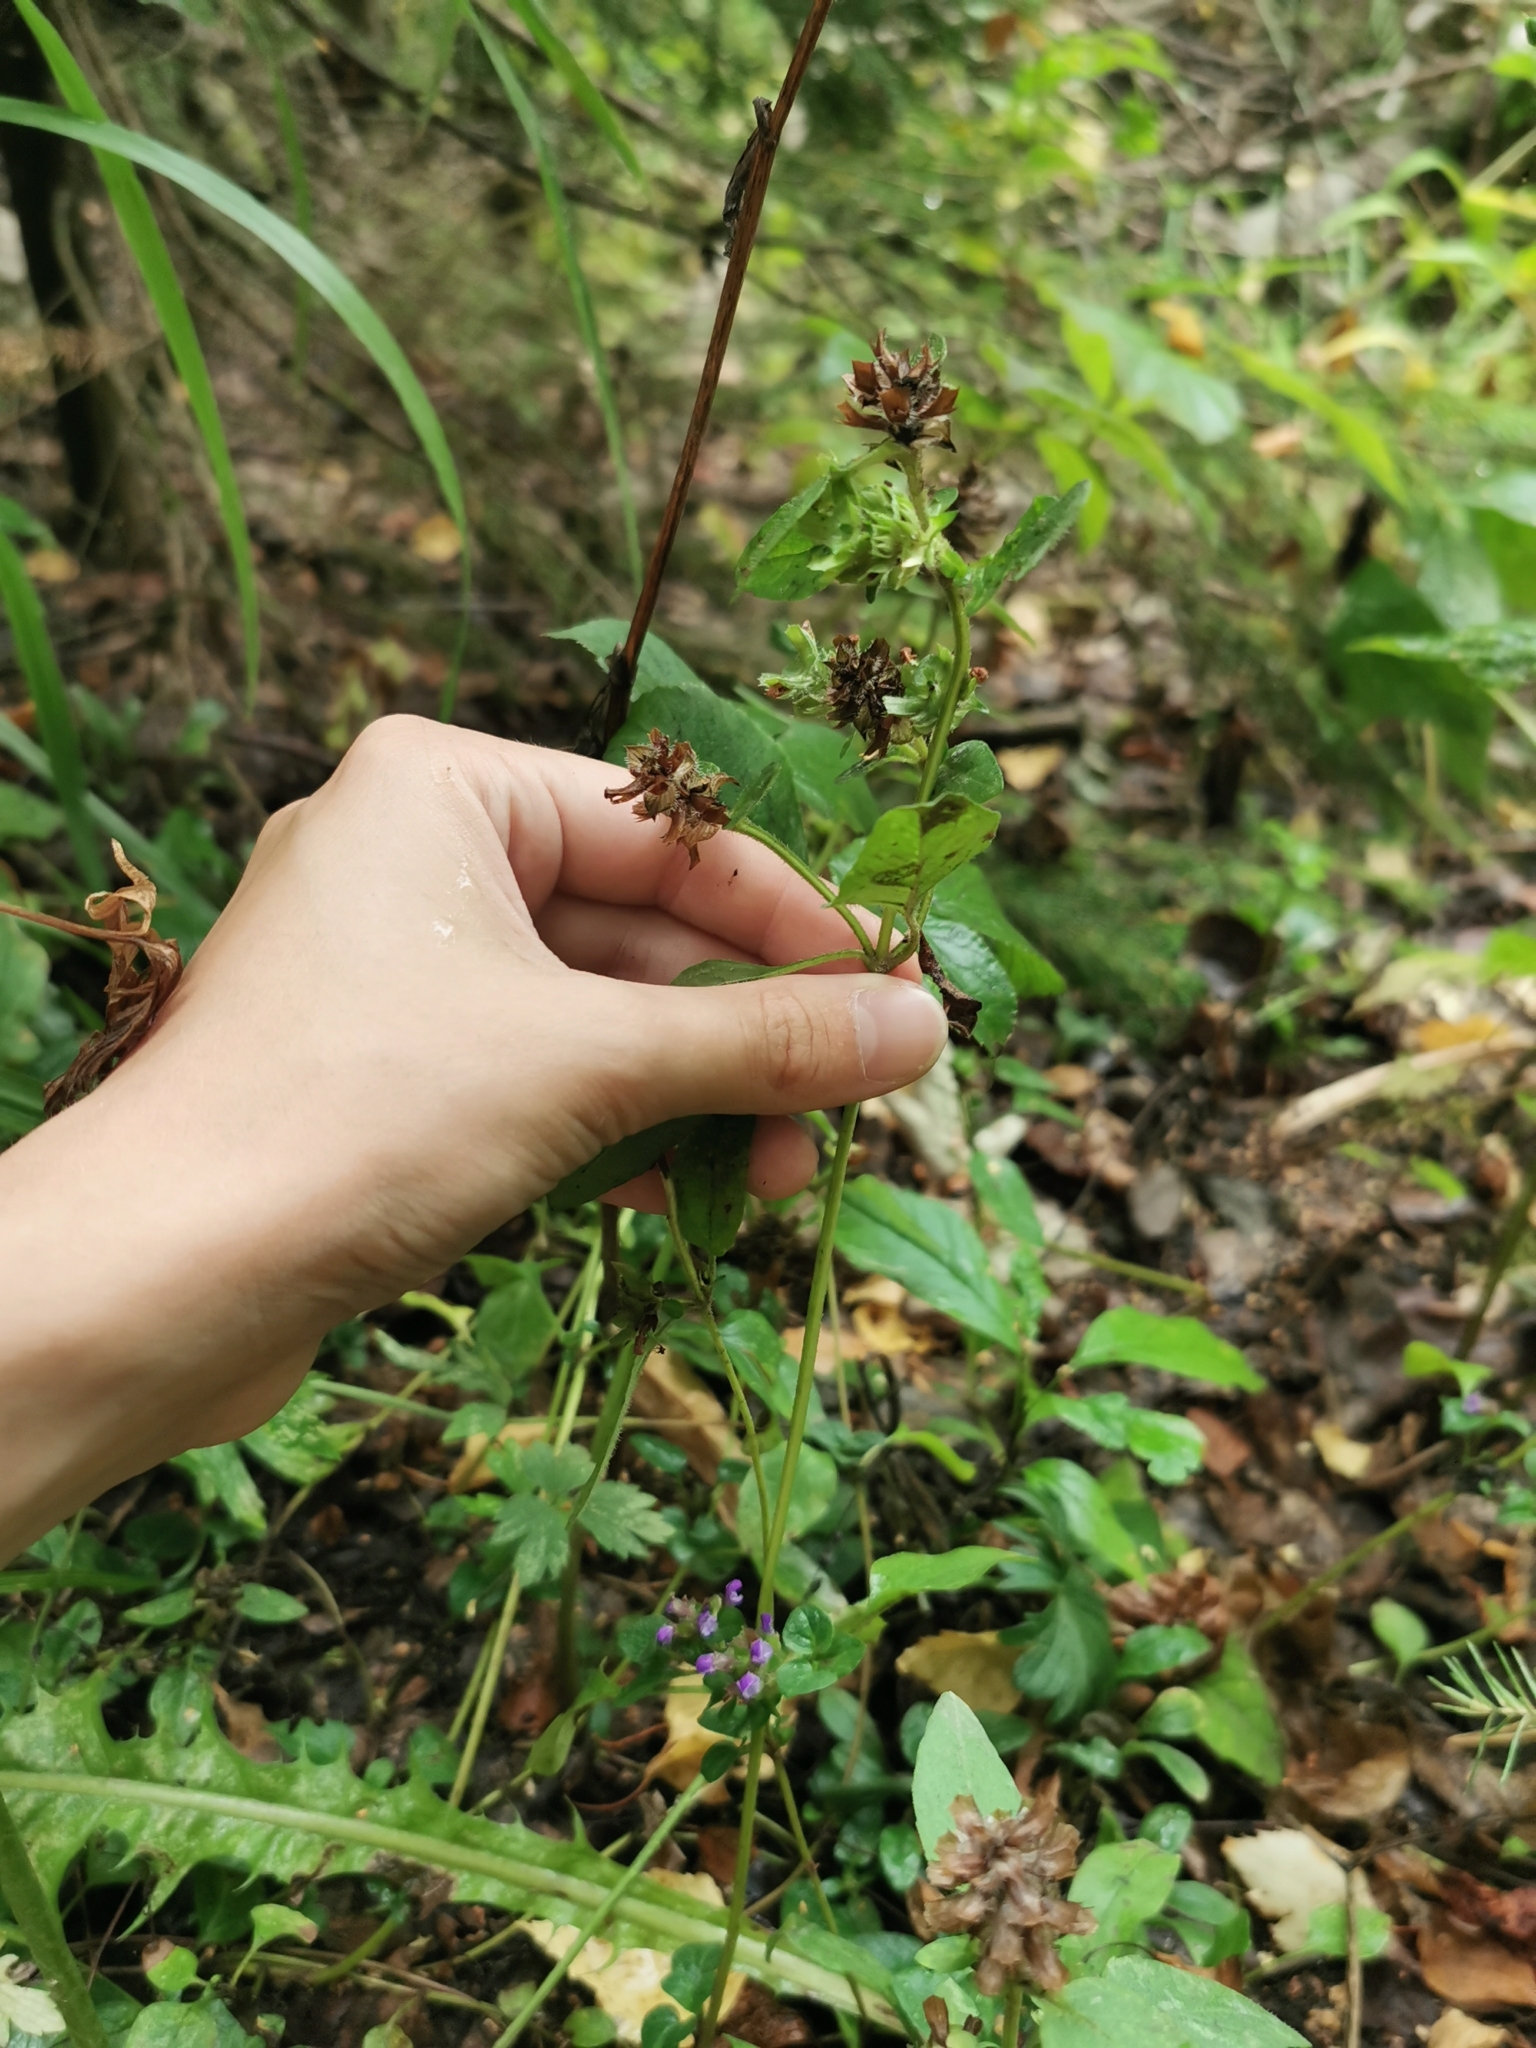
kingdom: Plantae
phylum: Tracheophyta
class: Magnoliopsida
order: Lamiales
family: Lamiaceae
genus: Prunella
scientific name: Prunella vulgaris
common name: Heal-all
